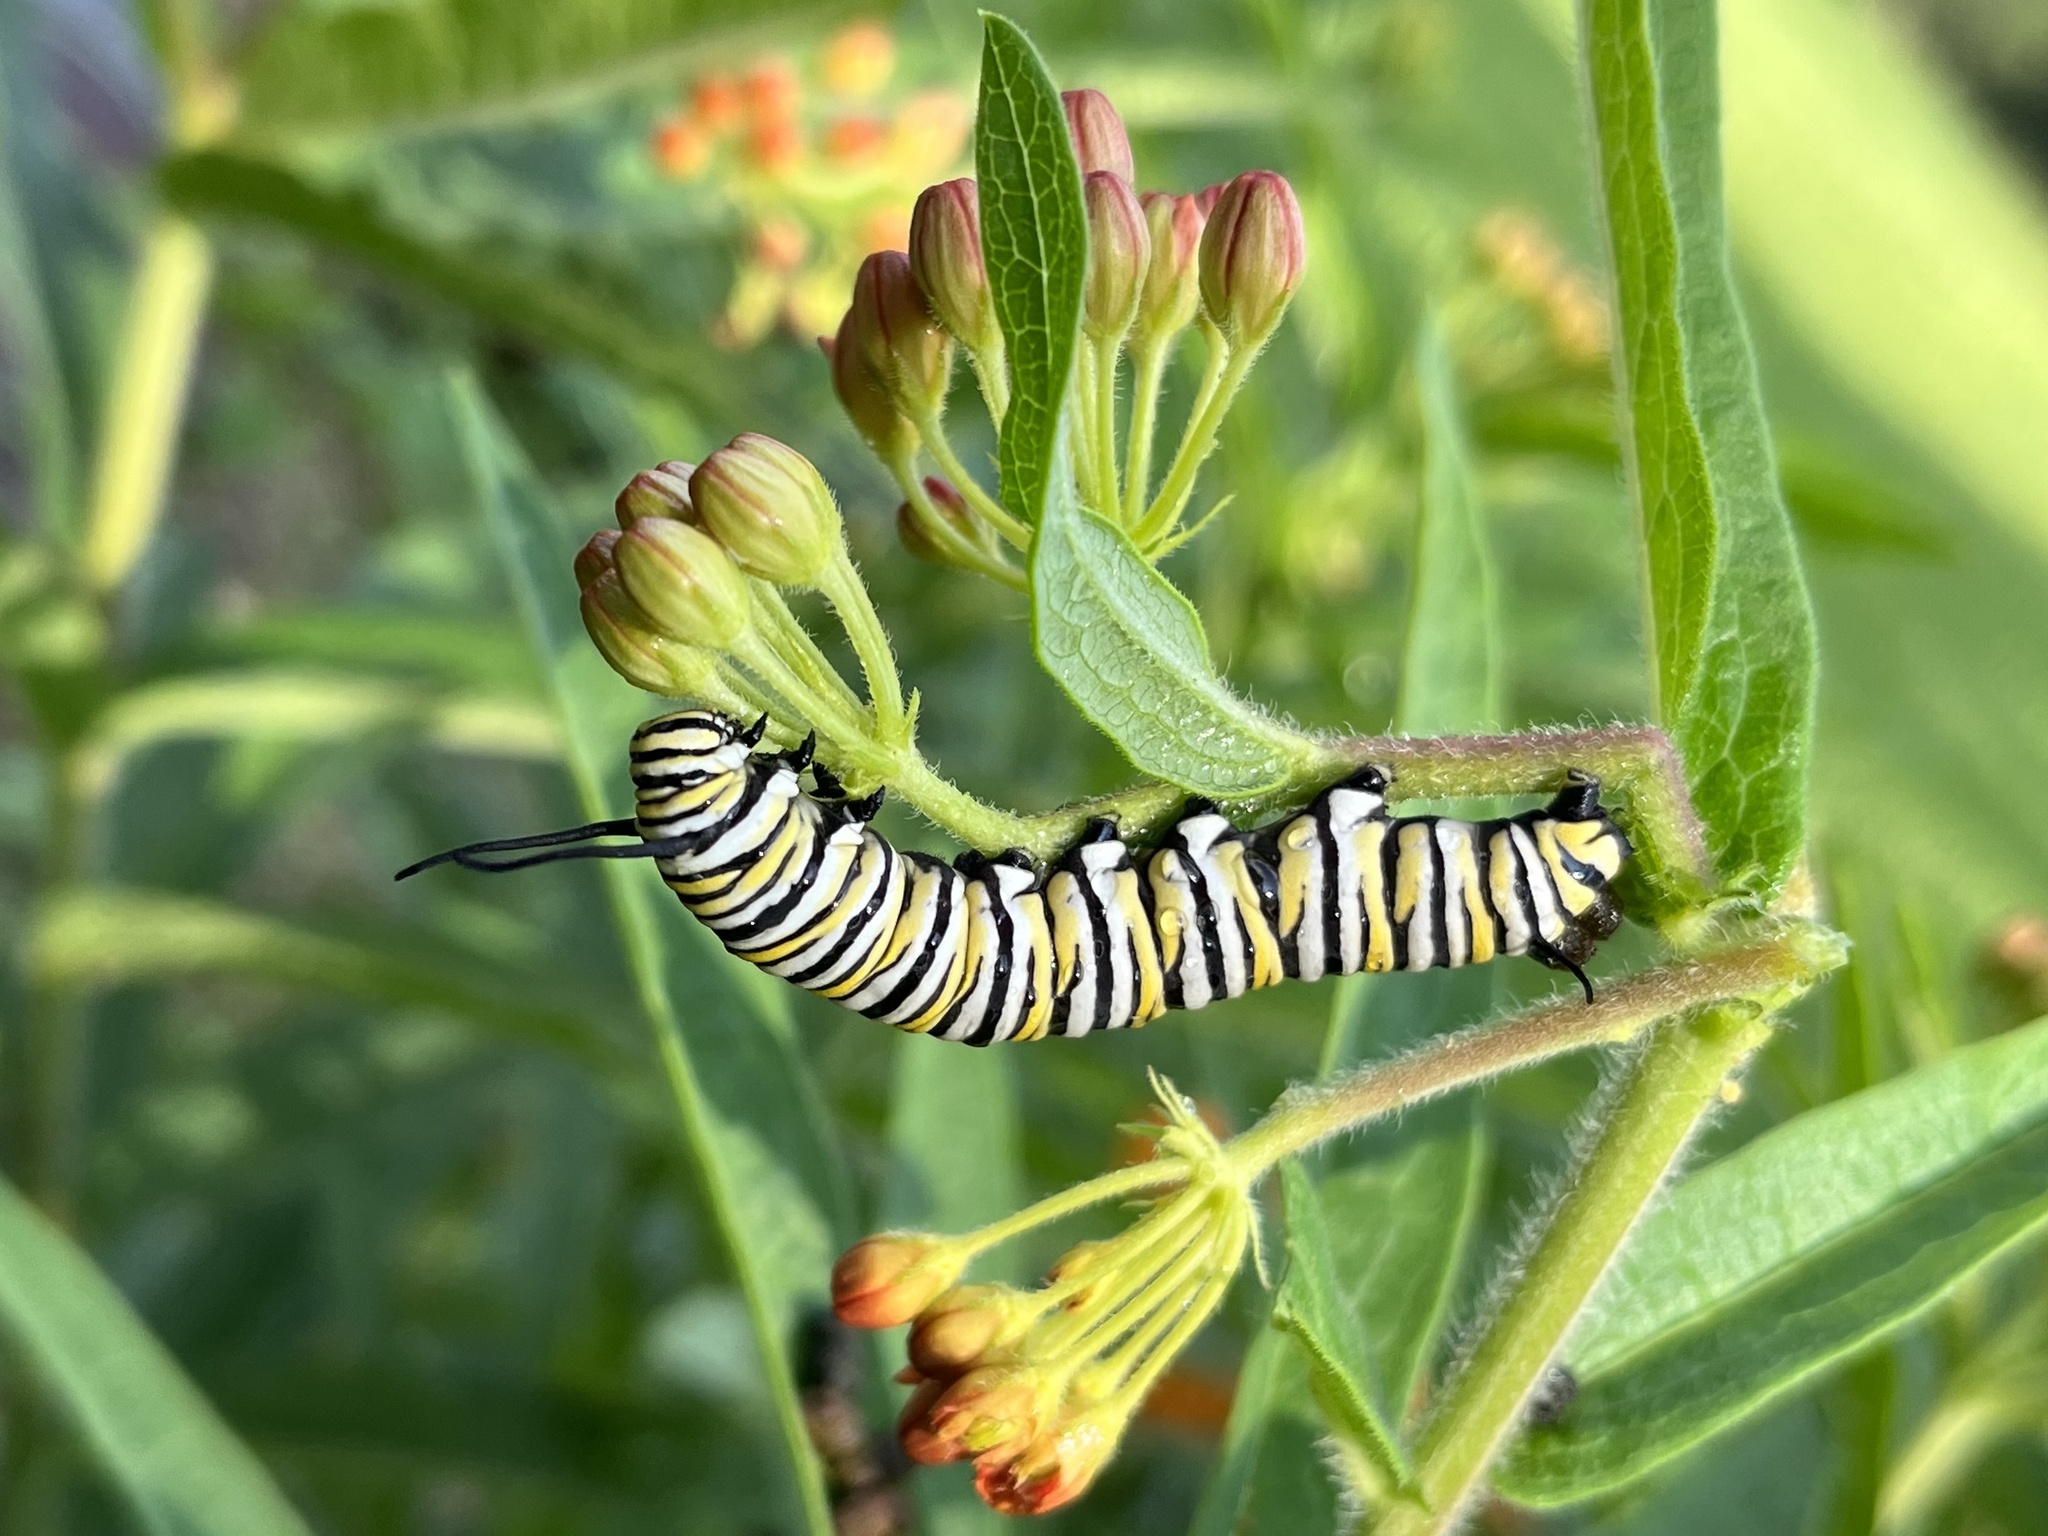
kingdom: Animalia
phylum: Arthropoda
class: Insecta
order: Lepidoptera
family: Nymphalidae
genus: Danaus
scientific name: Danaus plexippus
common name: Monarch
